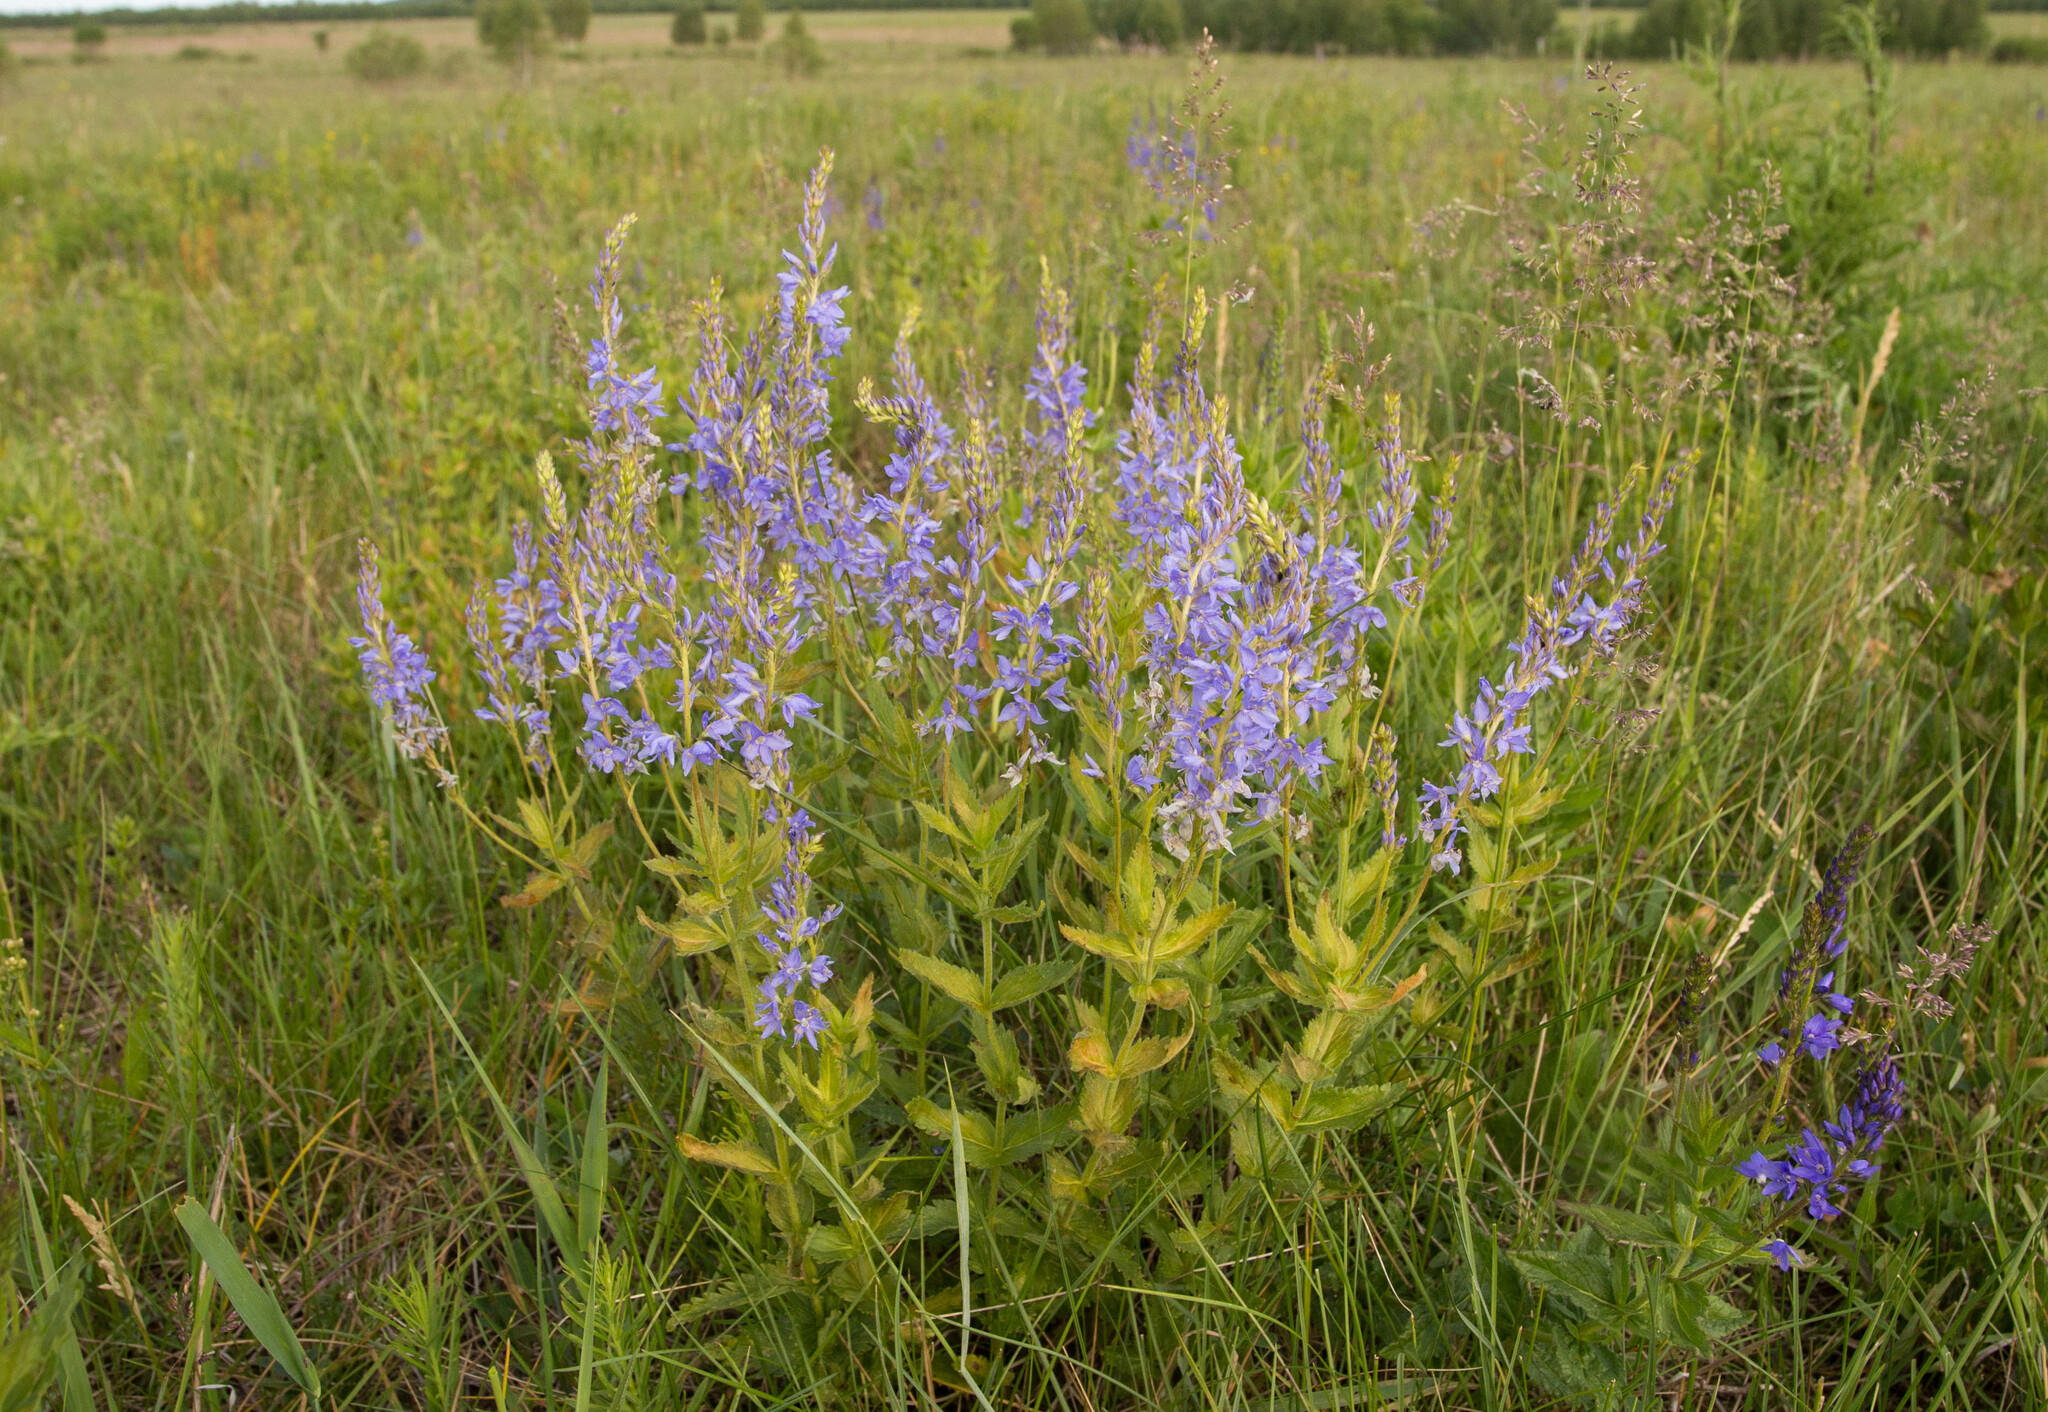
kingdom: Plantae
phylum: Tracheophyta
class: Magnoliopsida
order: Lamiales
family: Plantaginaceae
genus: Veronica
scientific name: Veronica teucrium
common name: Large speedwell
